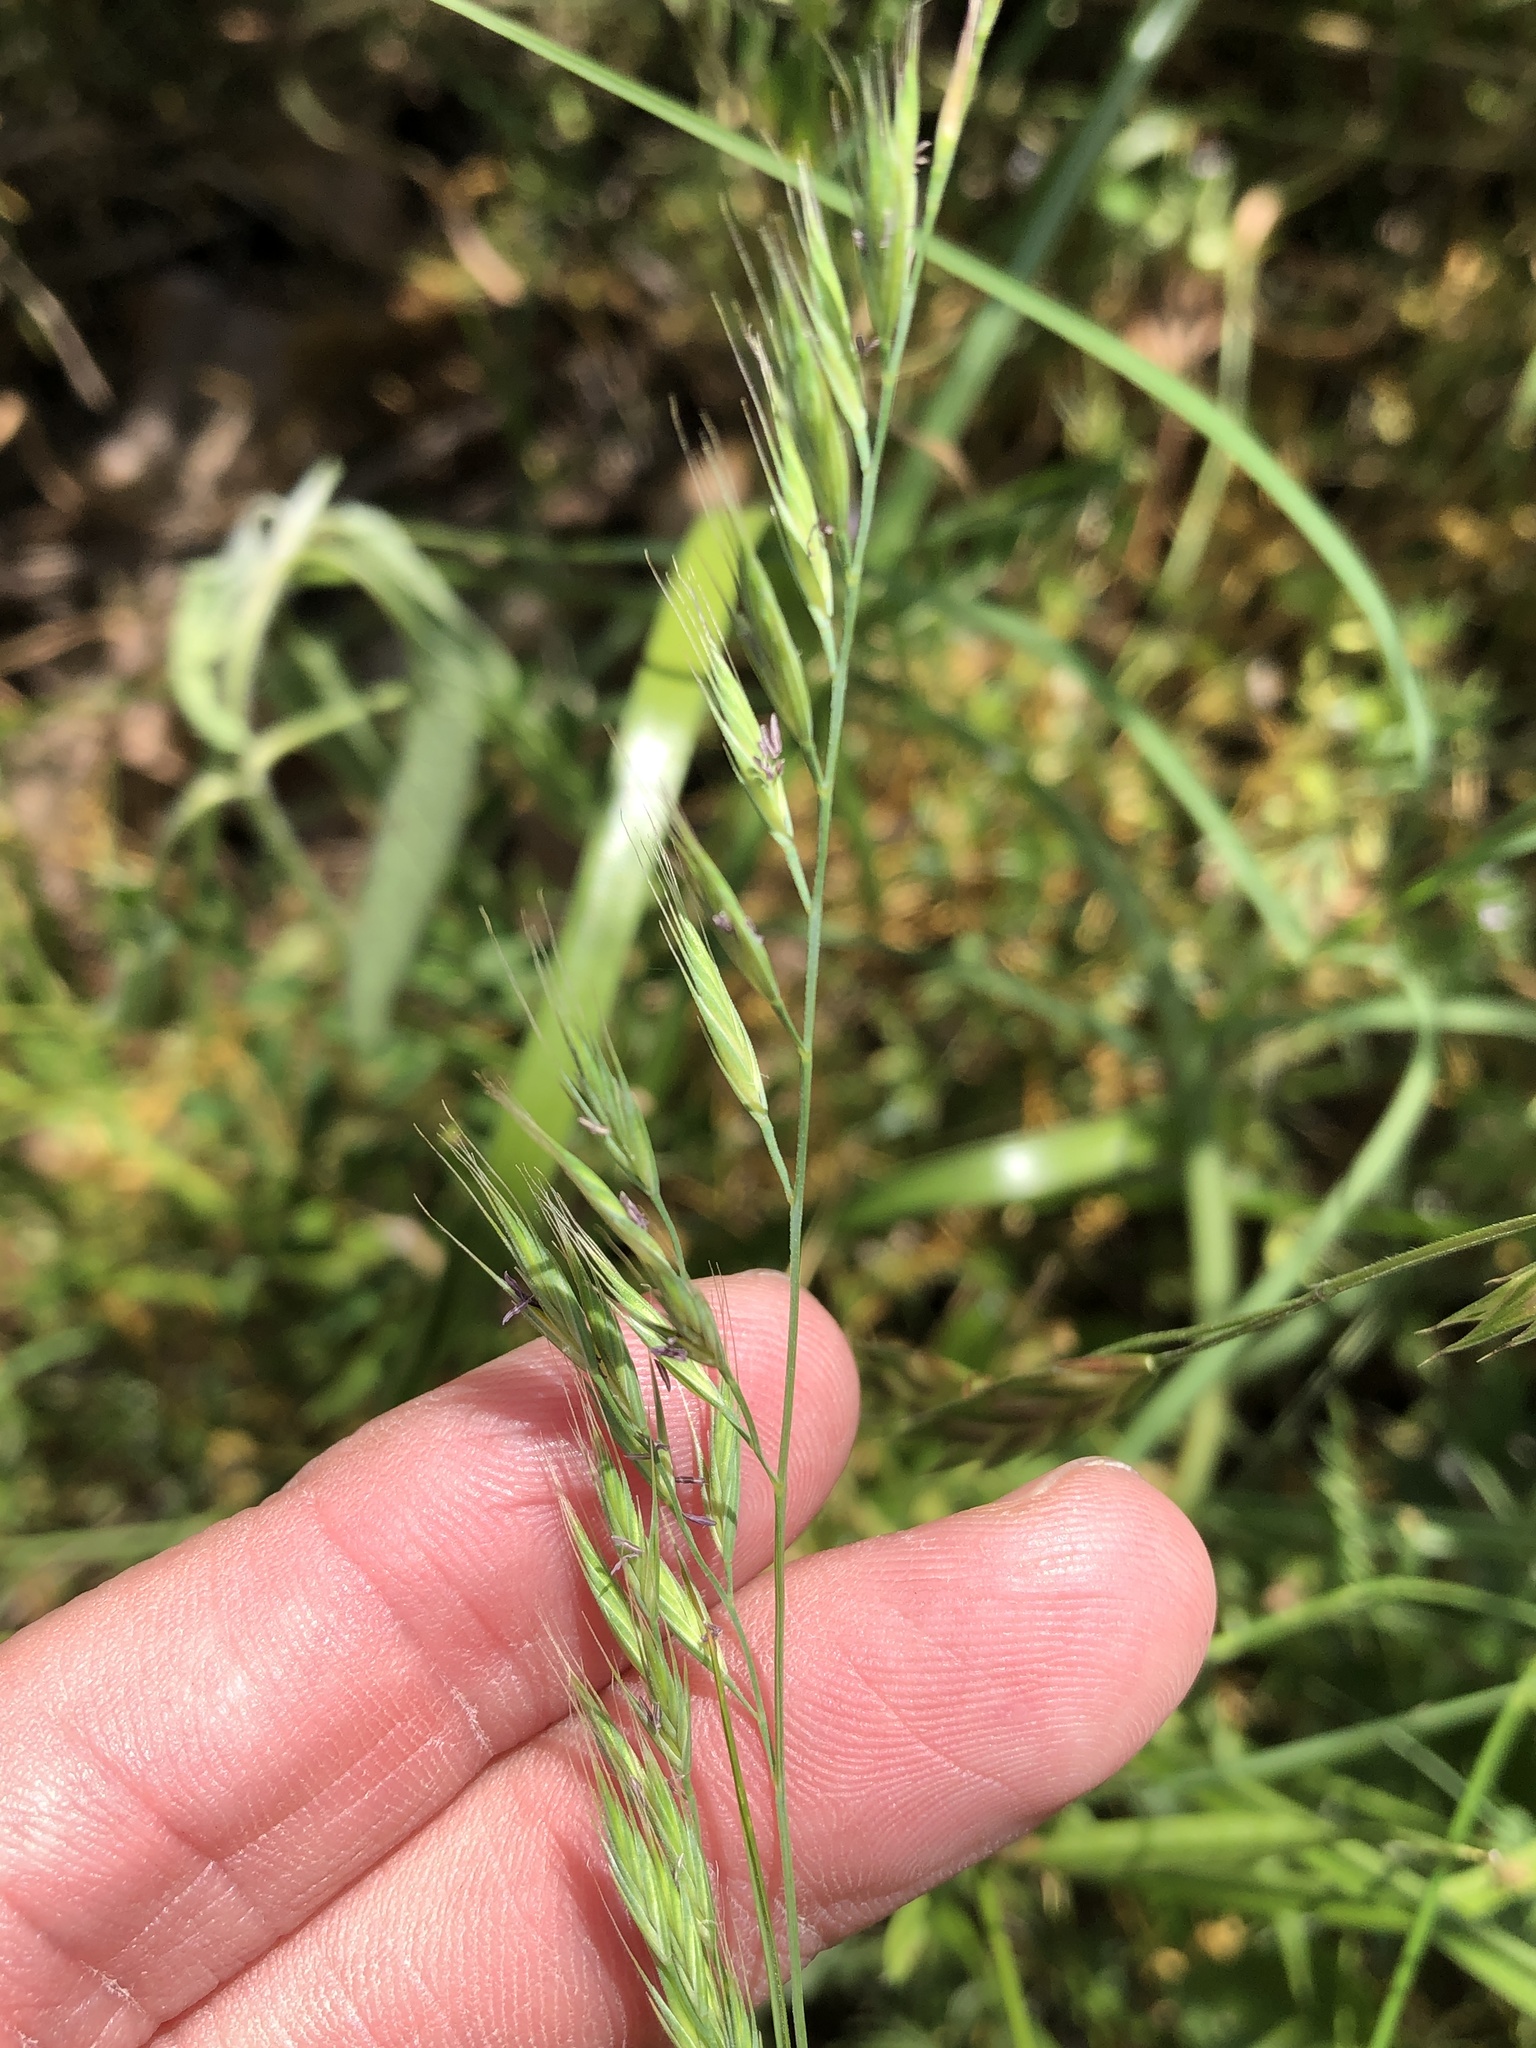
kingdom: Plantae
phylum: Tracheophyta
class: Liliopsida
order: Poales
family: Poaceae
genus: Festuca
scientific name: Festuca octoflora
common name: Sixweeks grass
